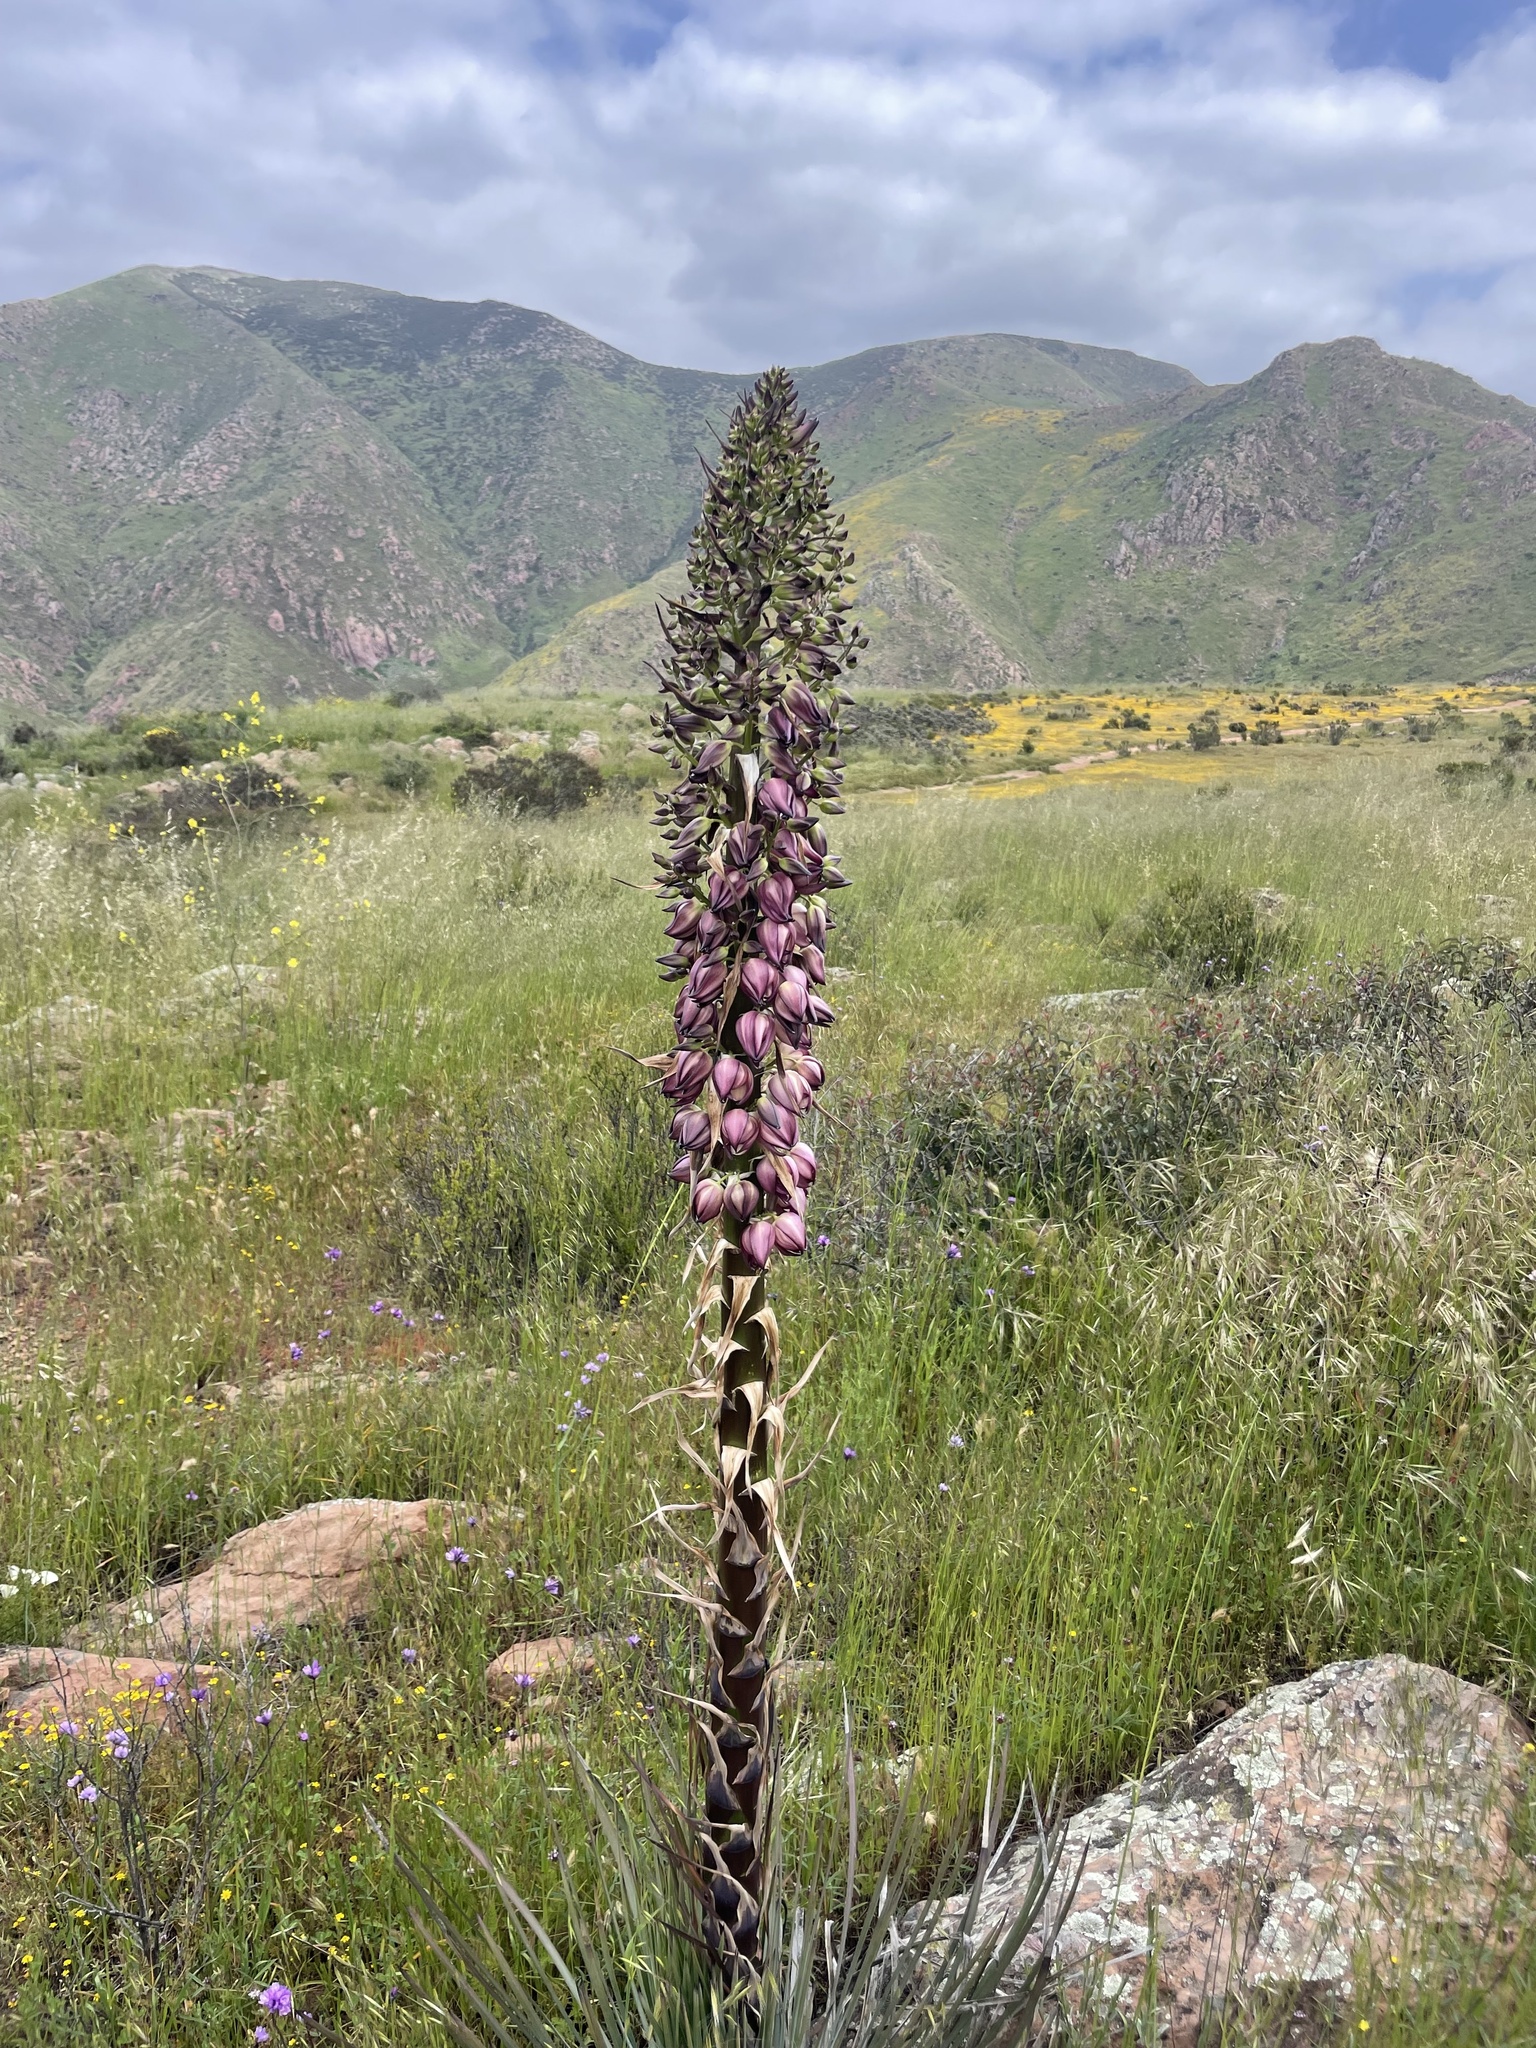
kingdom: Plantae
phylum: Tracheophyta
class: Liliopsida
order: Asparagales
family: Asparagaceae
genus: Hesperoyucca
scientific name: Hesperoyucca whipplei
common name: Our lord's-candle
